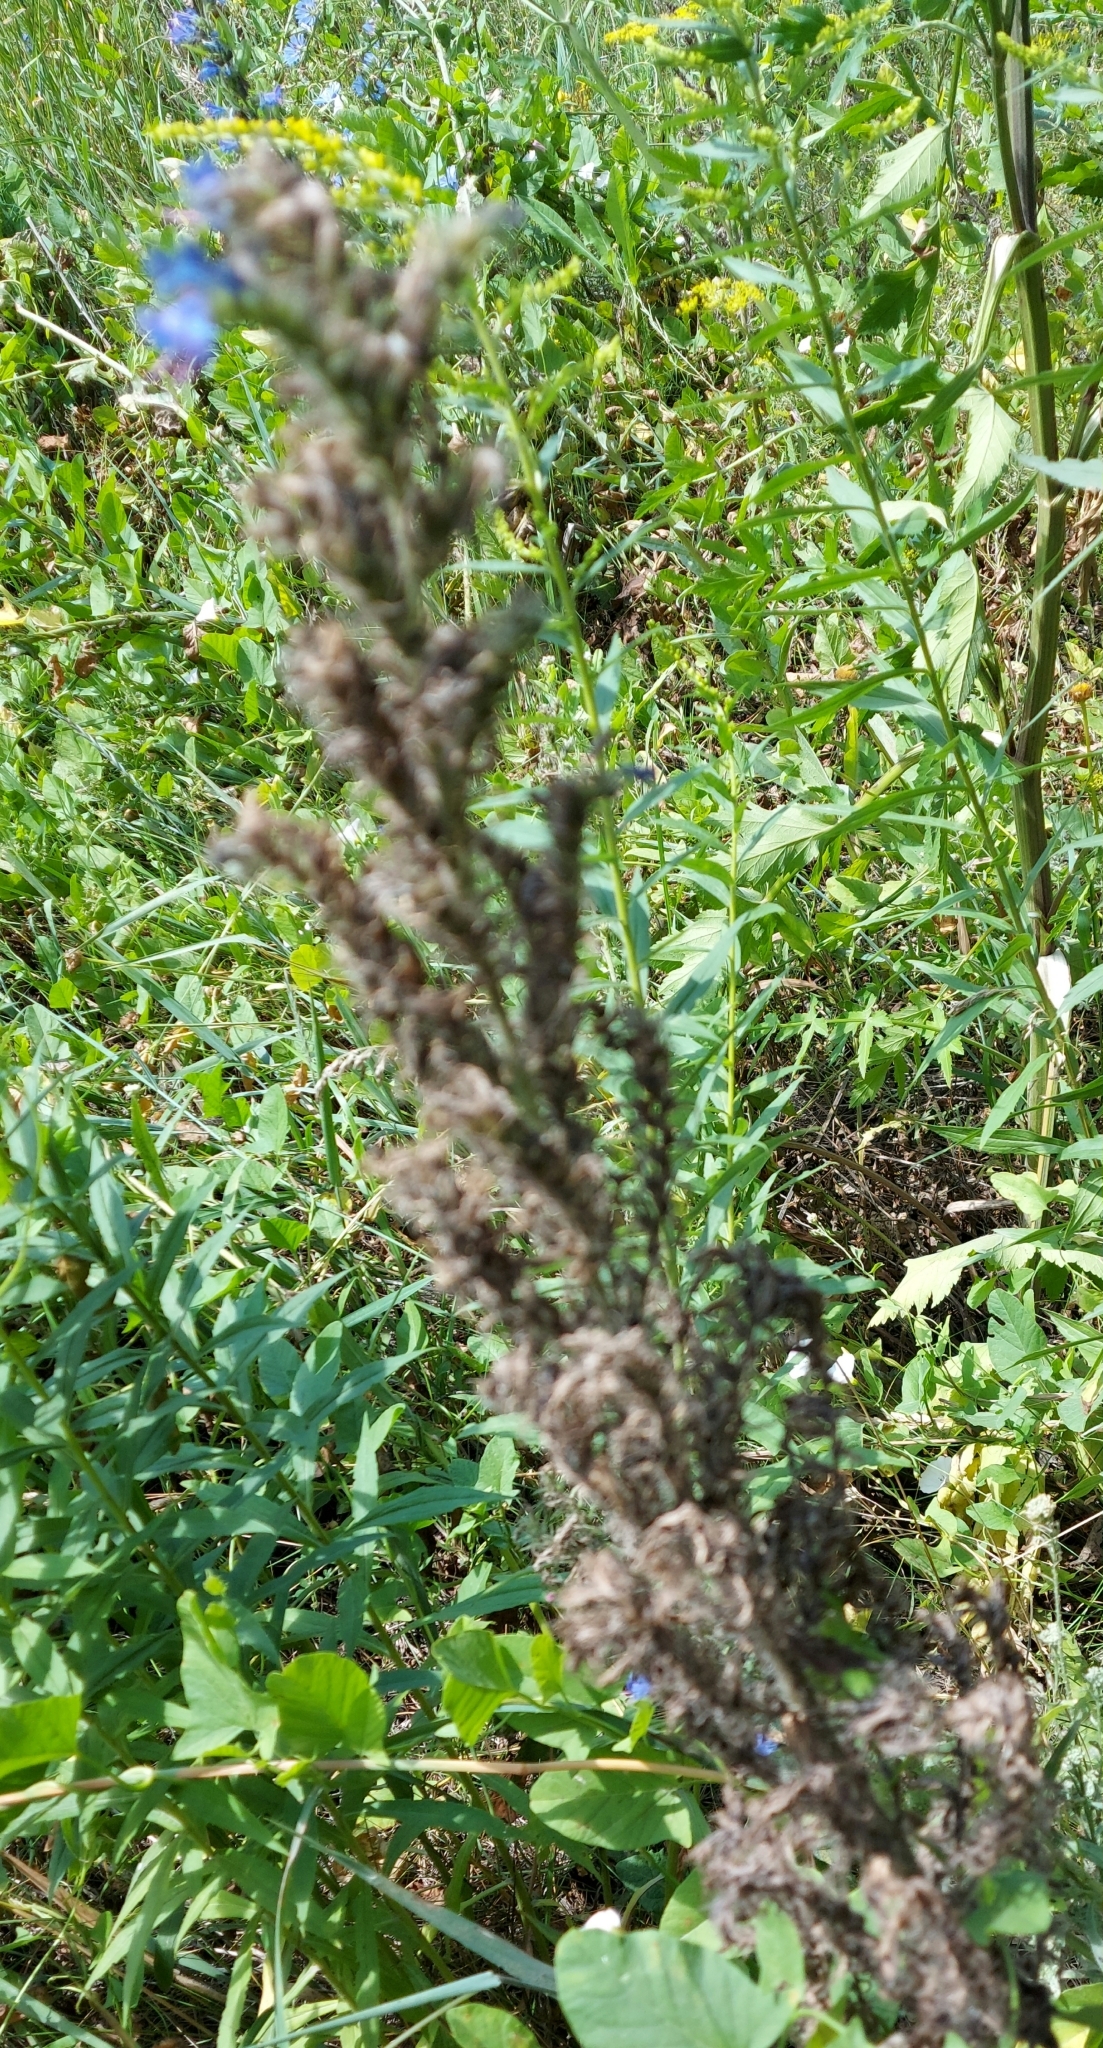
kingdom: Plantae
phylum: Tracheophyta
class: Magnoliopsida
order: Boraginales
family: Boraginaceae
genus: Echium
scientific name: Echium vulgare
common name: Common viper's bugloss
